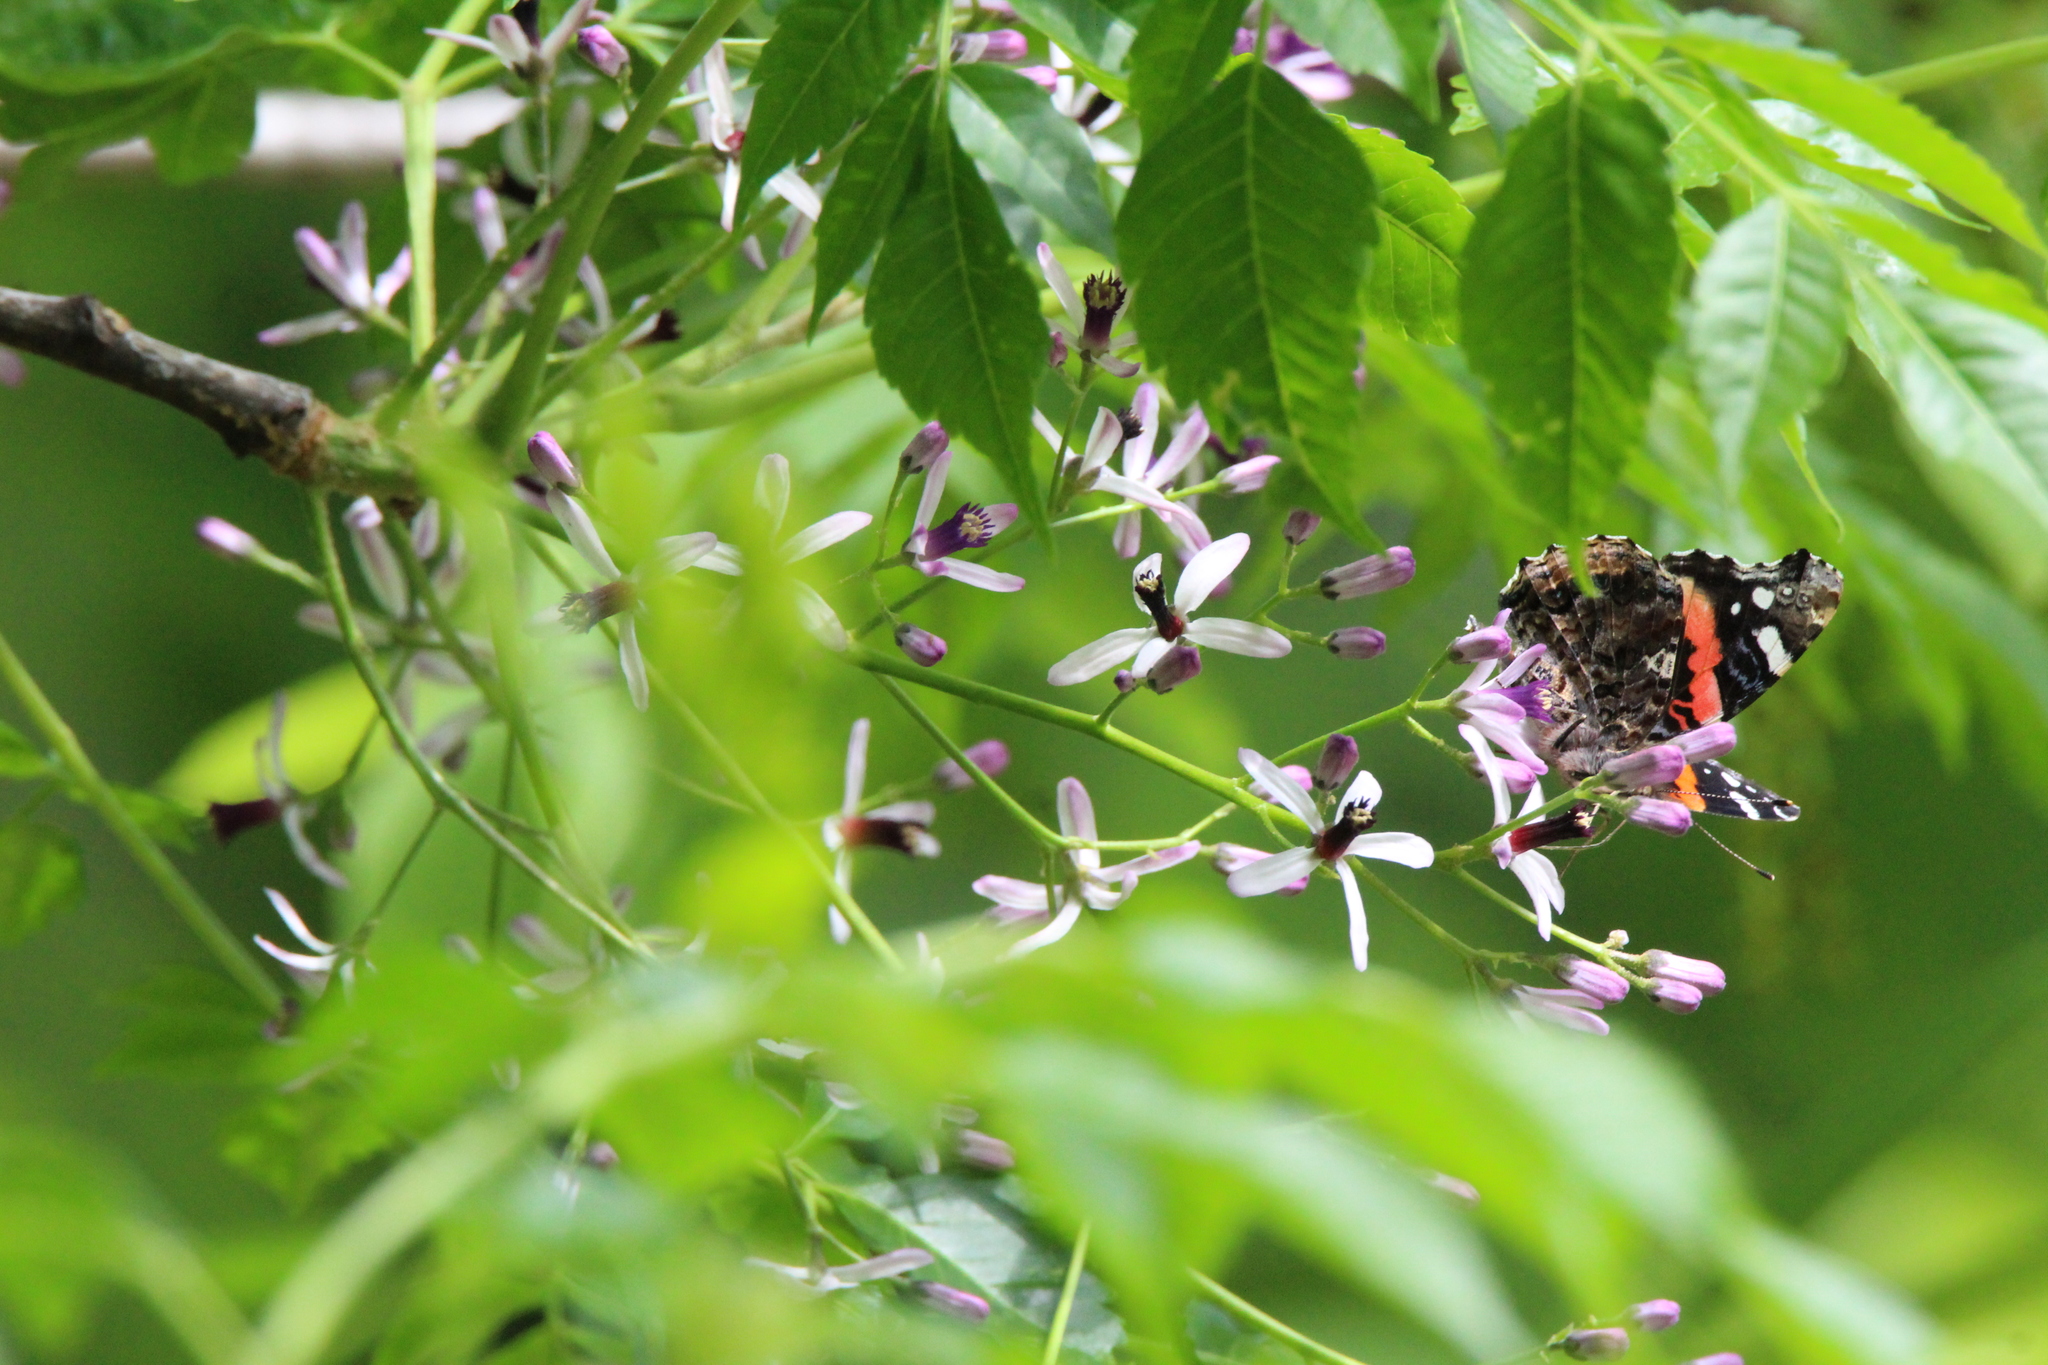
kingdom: Animalia
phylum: Arthropoda
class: Insecta
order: Lepidoptera
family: Nymphalidae
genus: Vanessa
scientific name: Vanessa atalanta
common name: Red admiral
